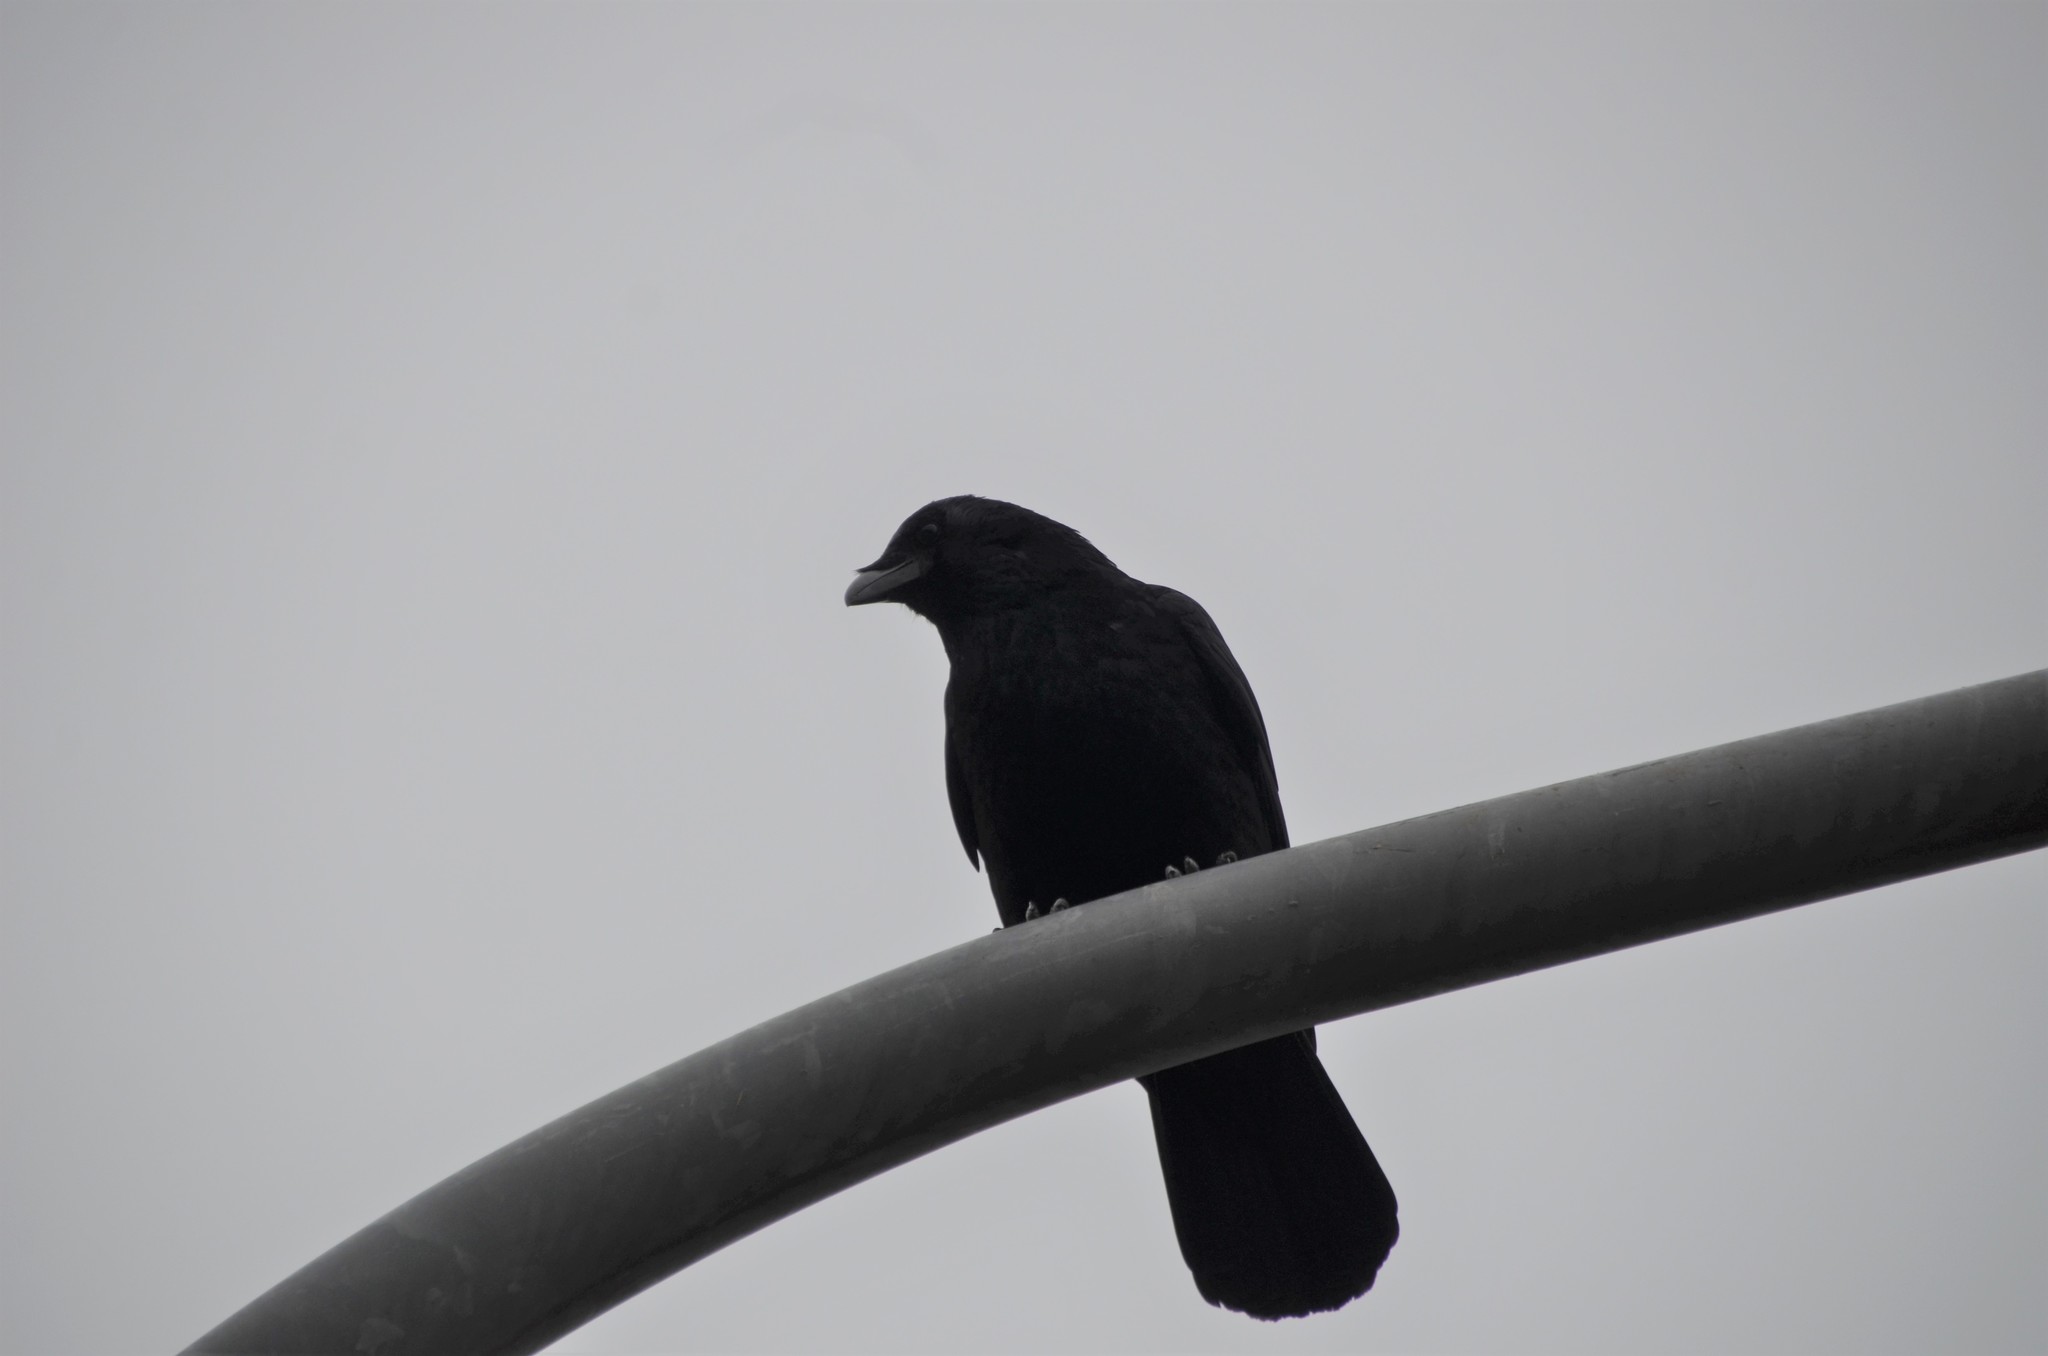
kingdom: Animalia
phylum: Chordata
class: Aves
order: Passeriformes
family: Corvidae
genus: Corvus
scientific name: Corvus corone
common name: Carrion crow
